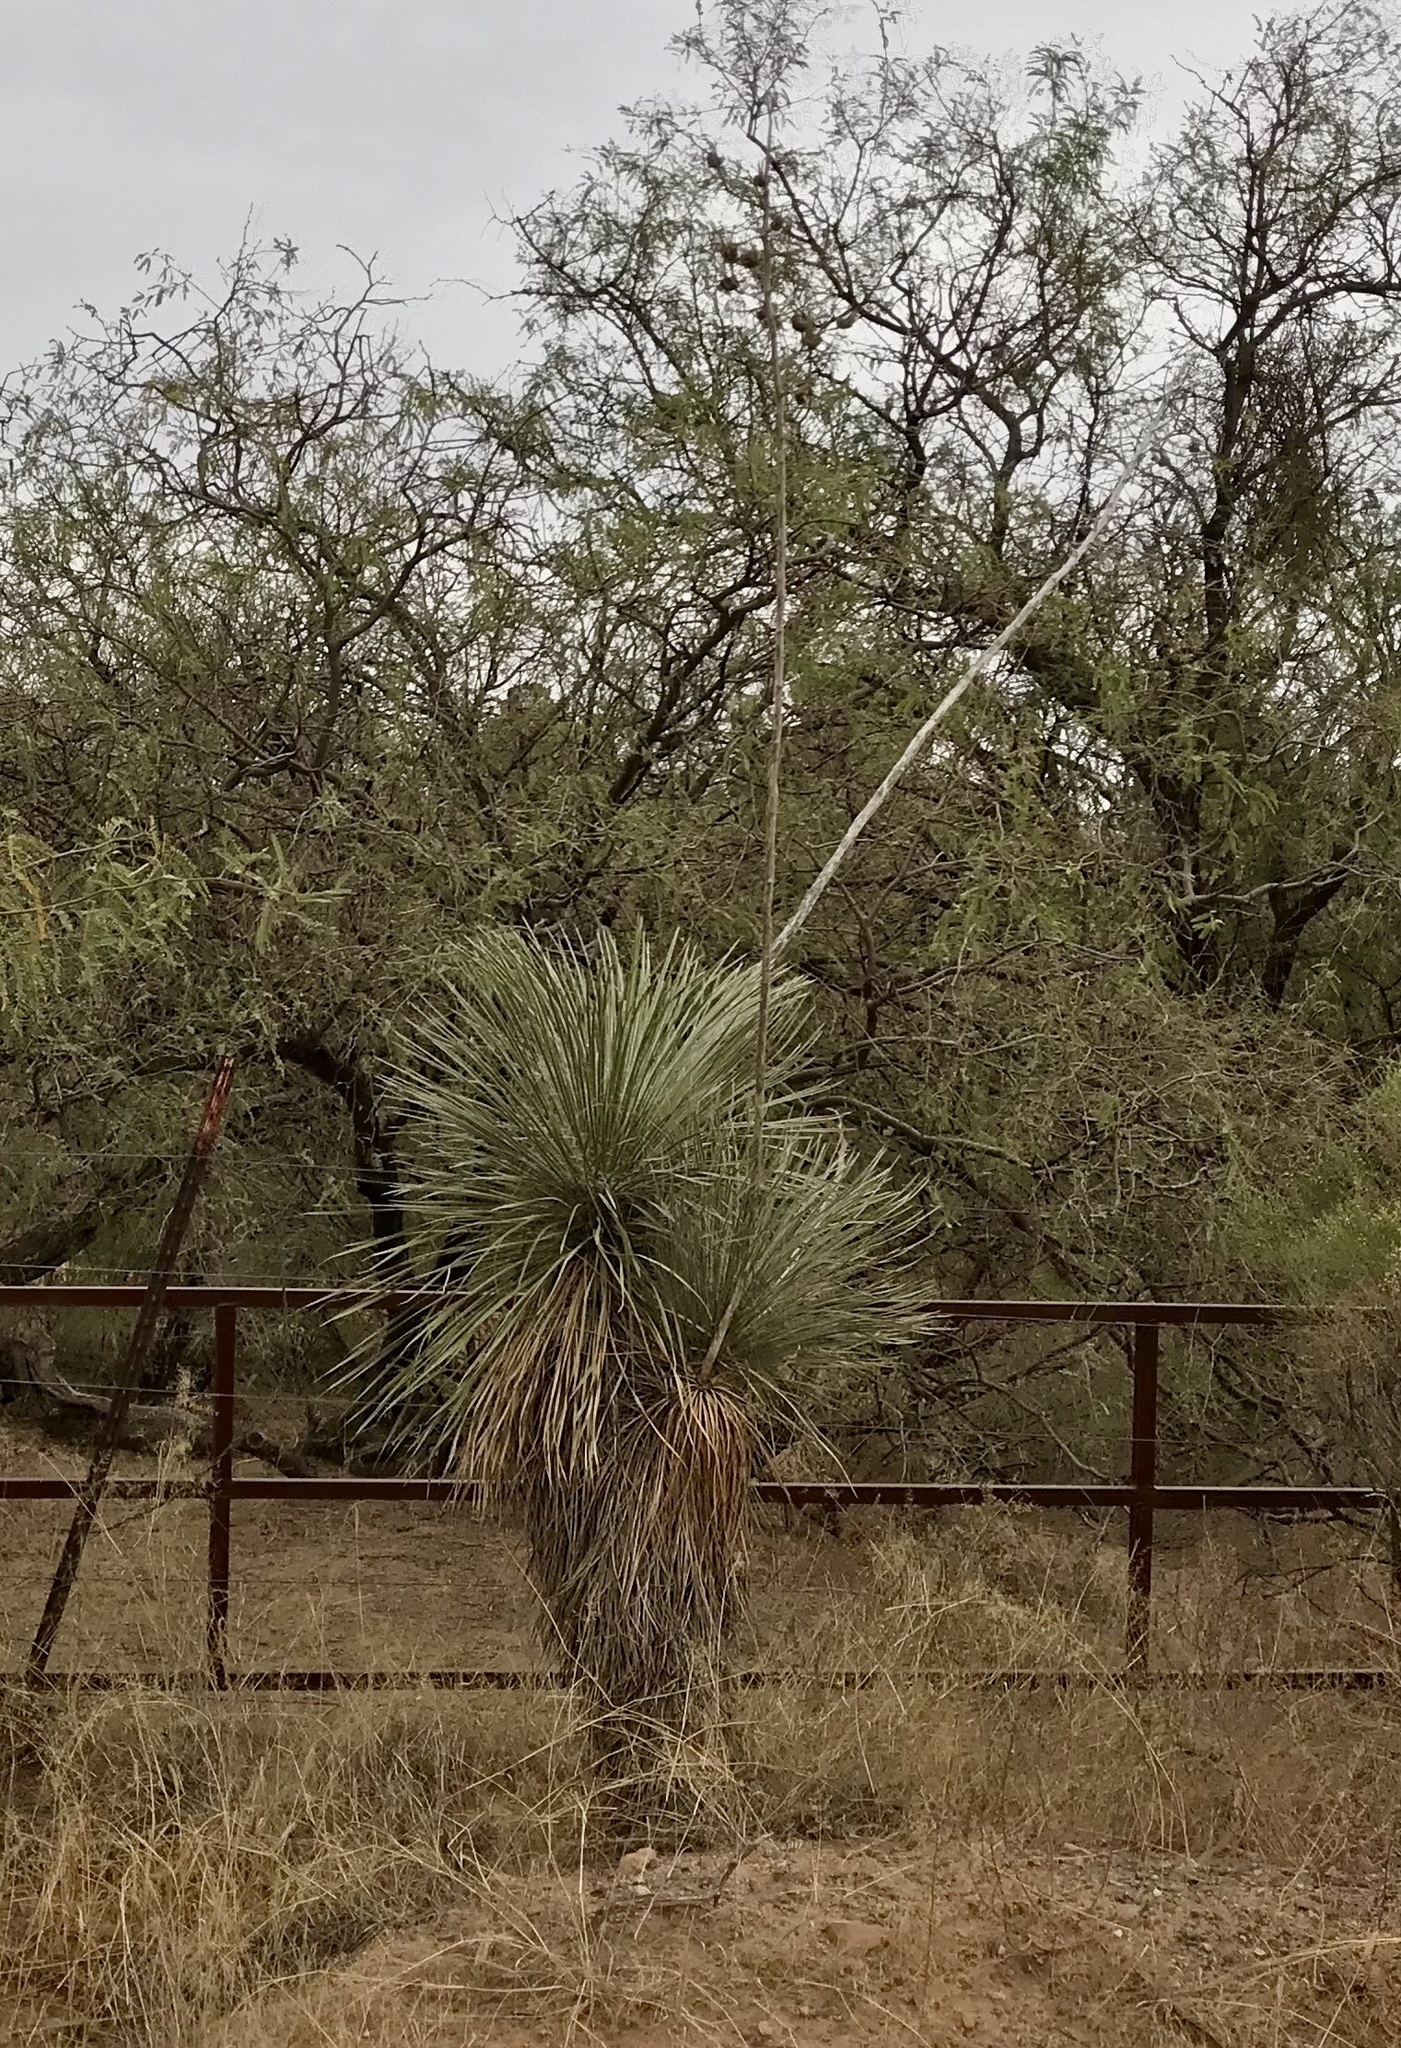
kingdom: Plantae
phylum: Tracheophyta
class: Liliopsida
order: Asparagales
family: Asparagaceae
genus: Yucca
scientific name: Yucca elata
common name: Palmella
